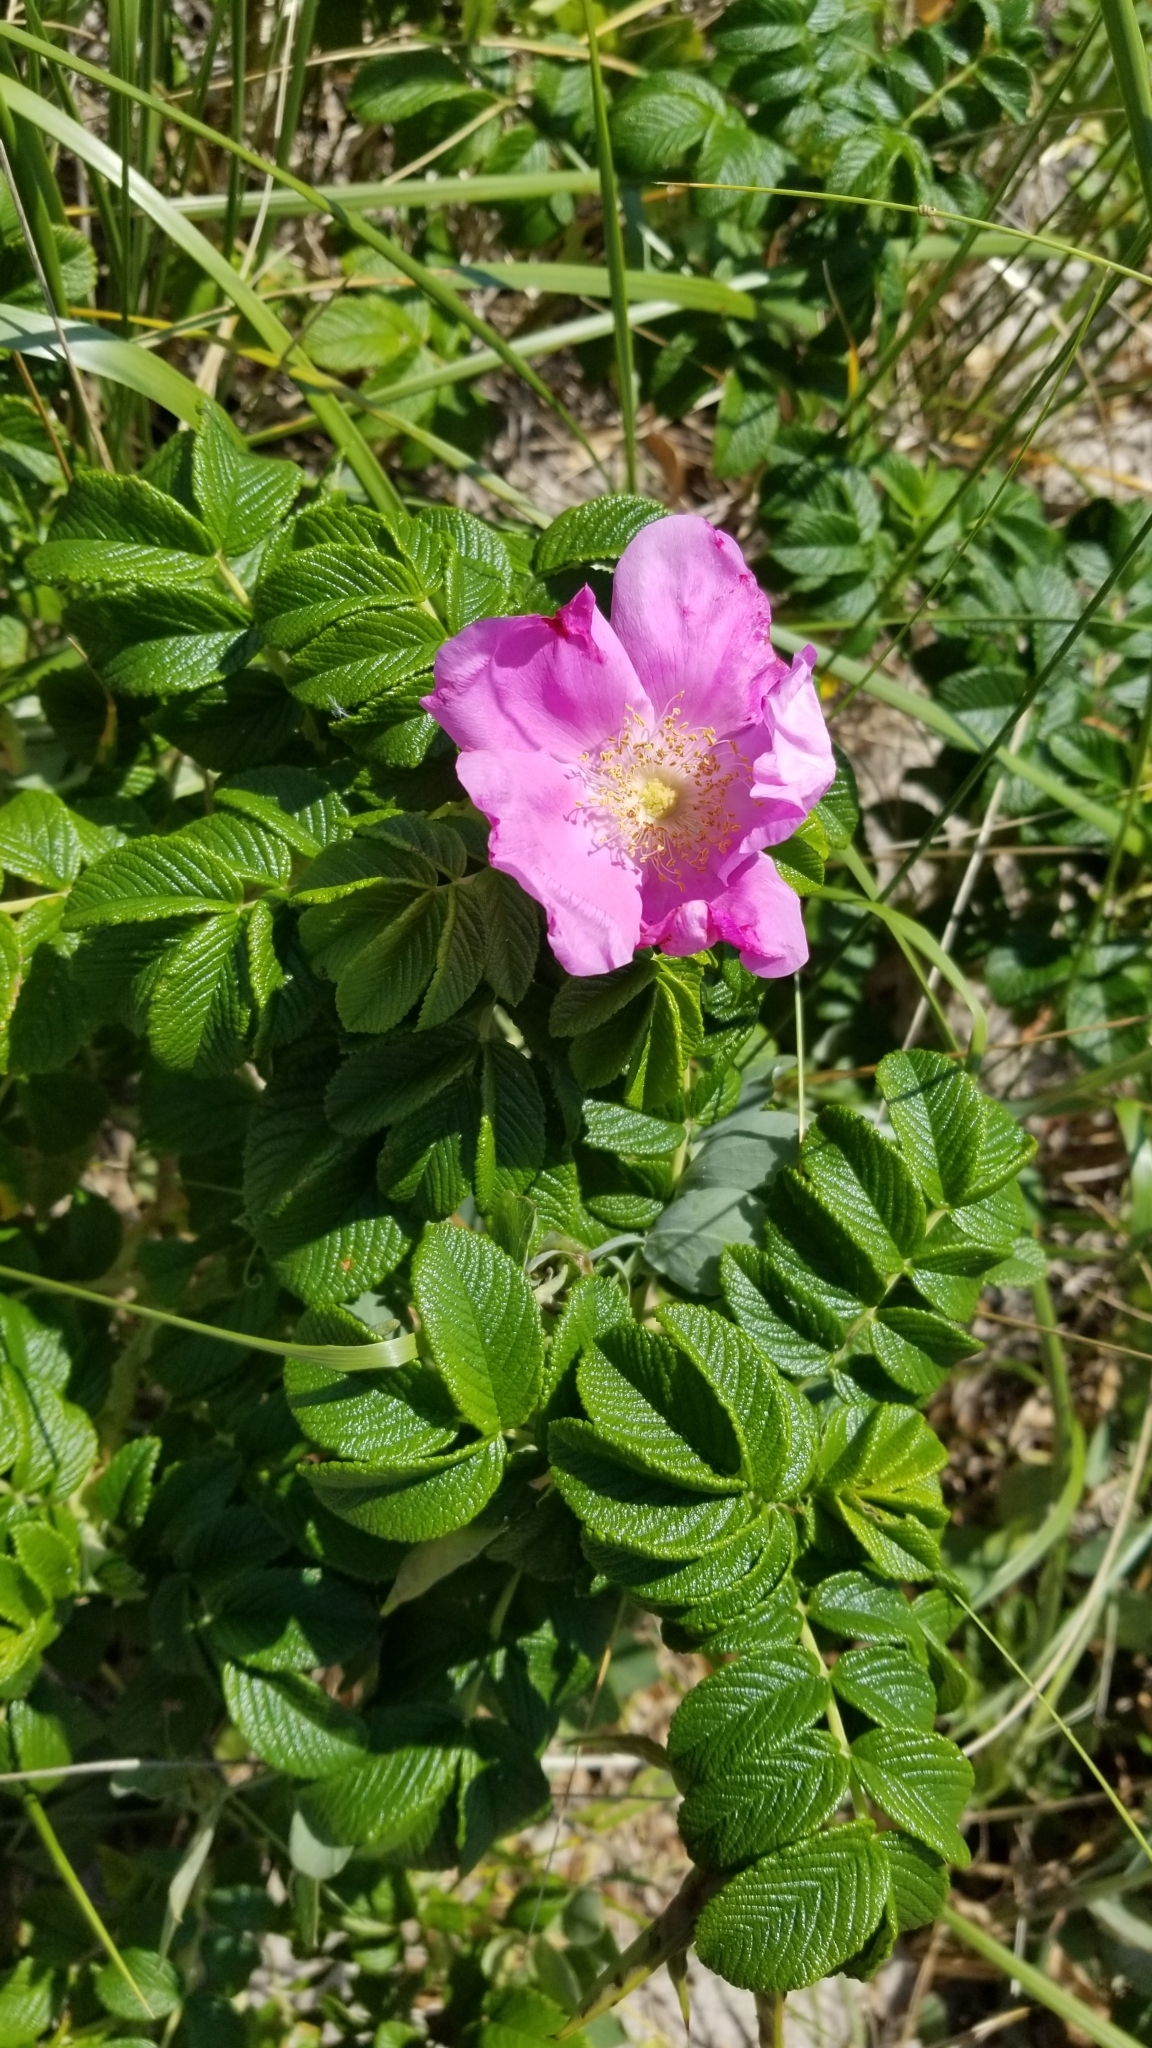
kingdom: Plantae
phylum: Tracheophyta
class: Magnoliopsida
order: Rosales
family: Rosaceae
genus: Rosa
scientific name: Rosa rugosa
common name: Japanese rose
